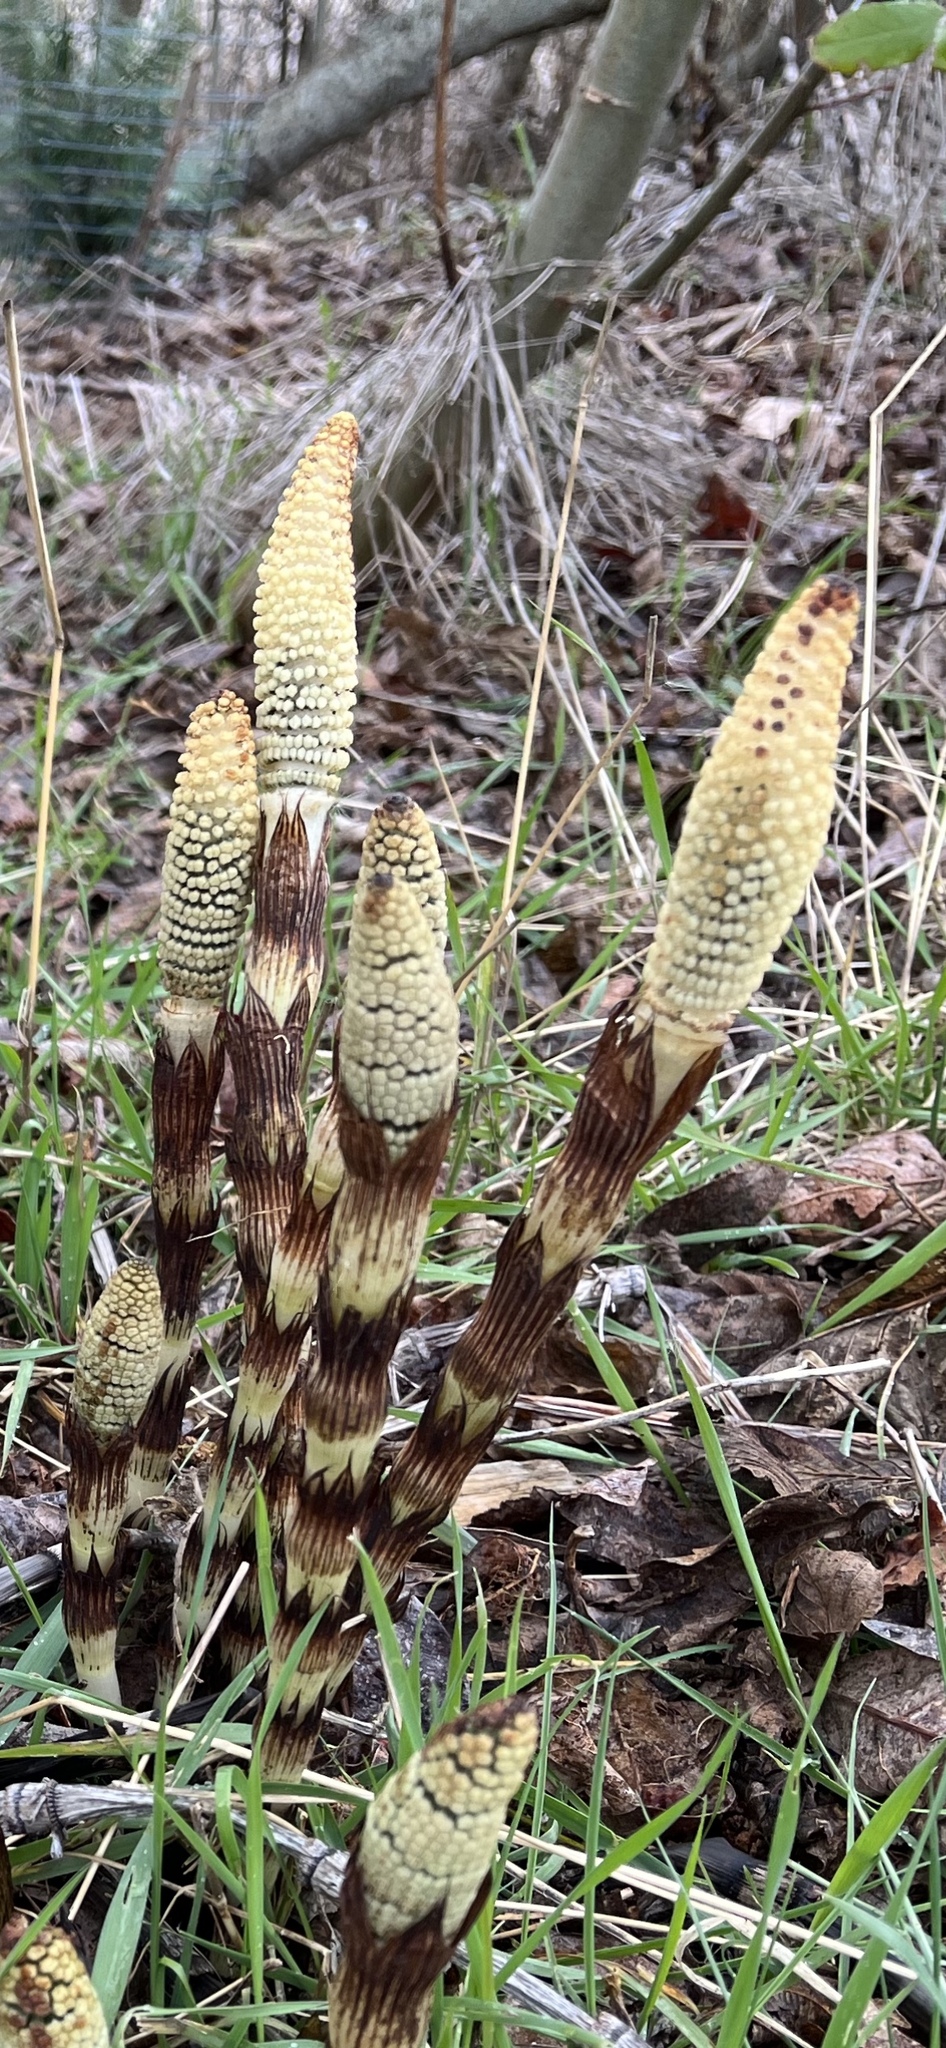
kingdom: Plantae
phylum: Tracheophyta
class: Polypodiopsida
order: Equisetales
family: Equisetaceae
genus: Equisetum
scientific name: Equisetum braunii
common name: Braun's horsetail
